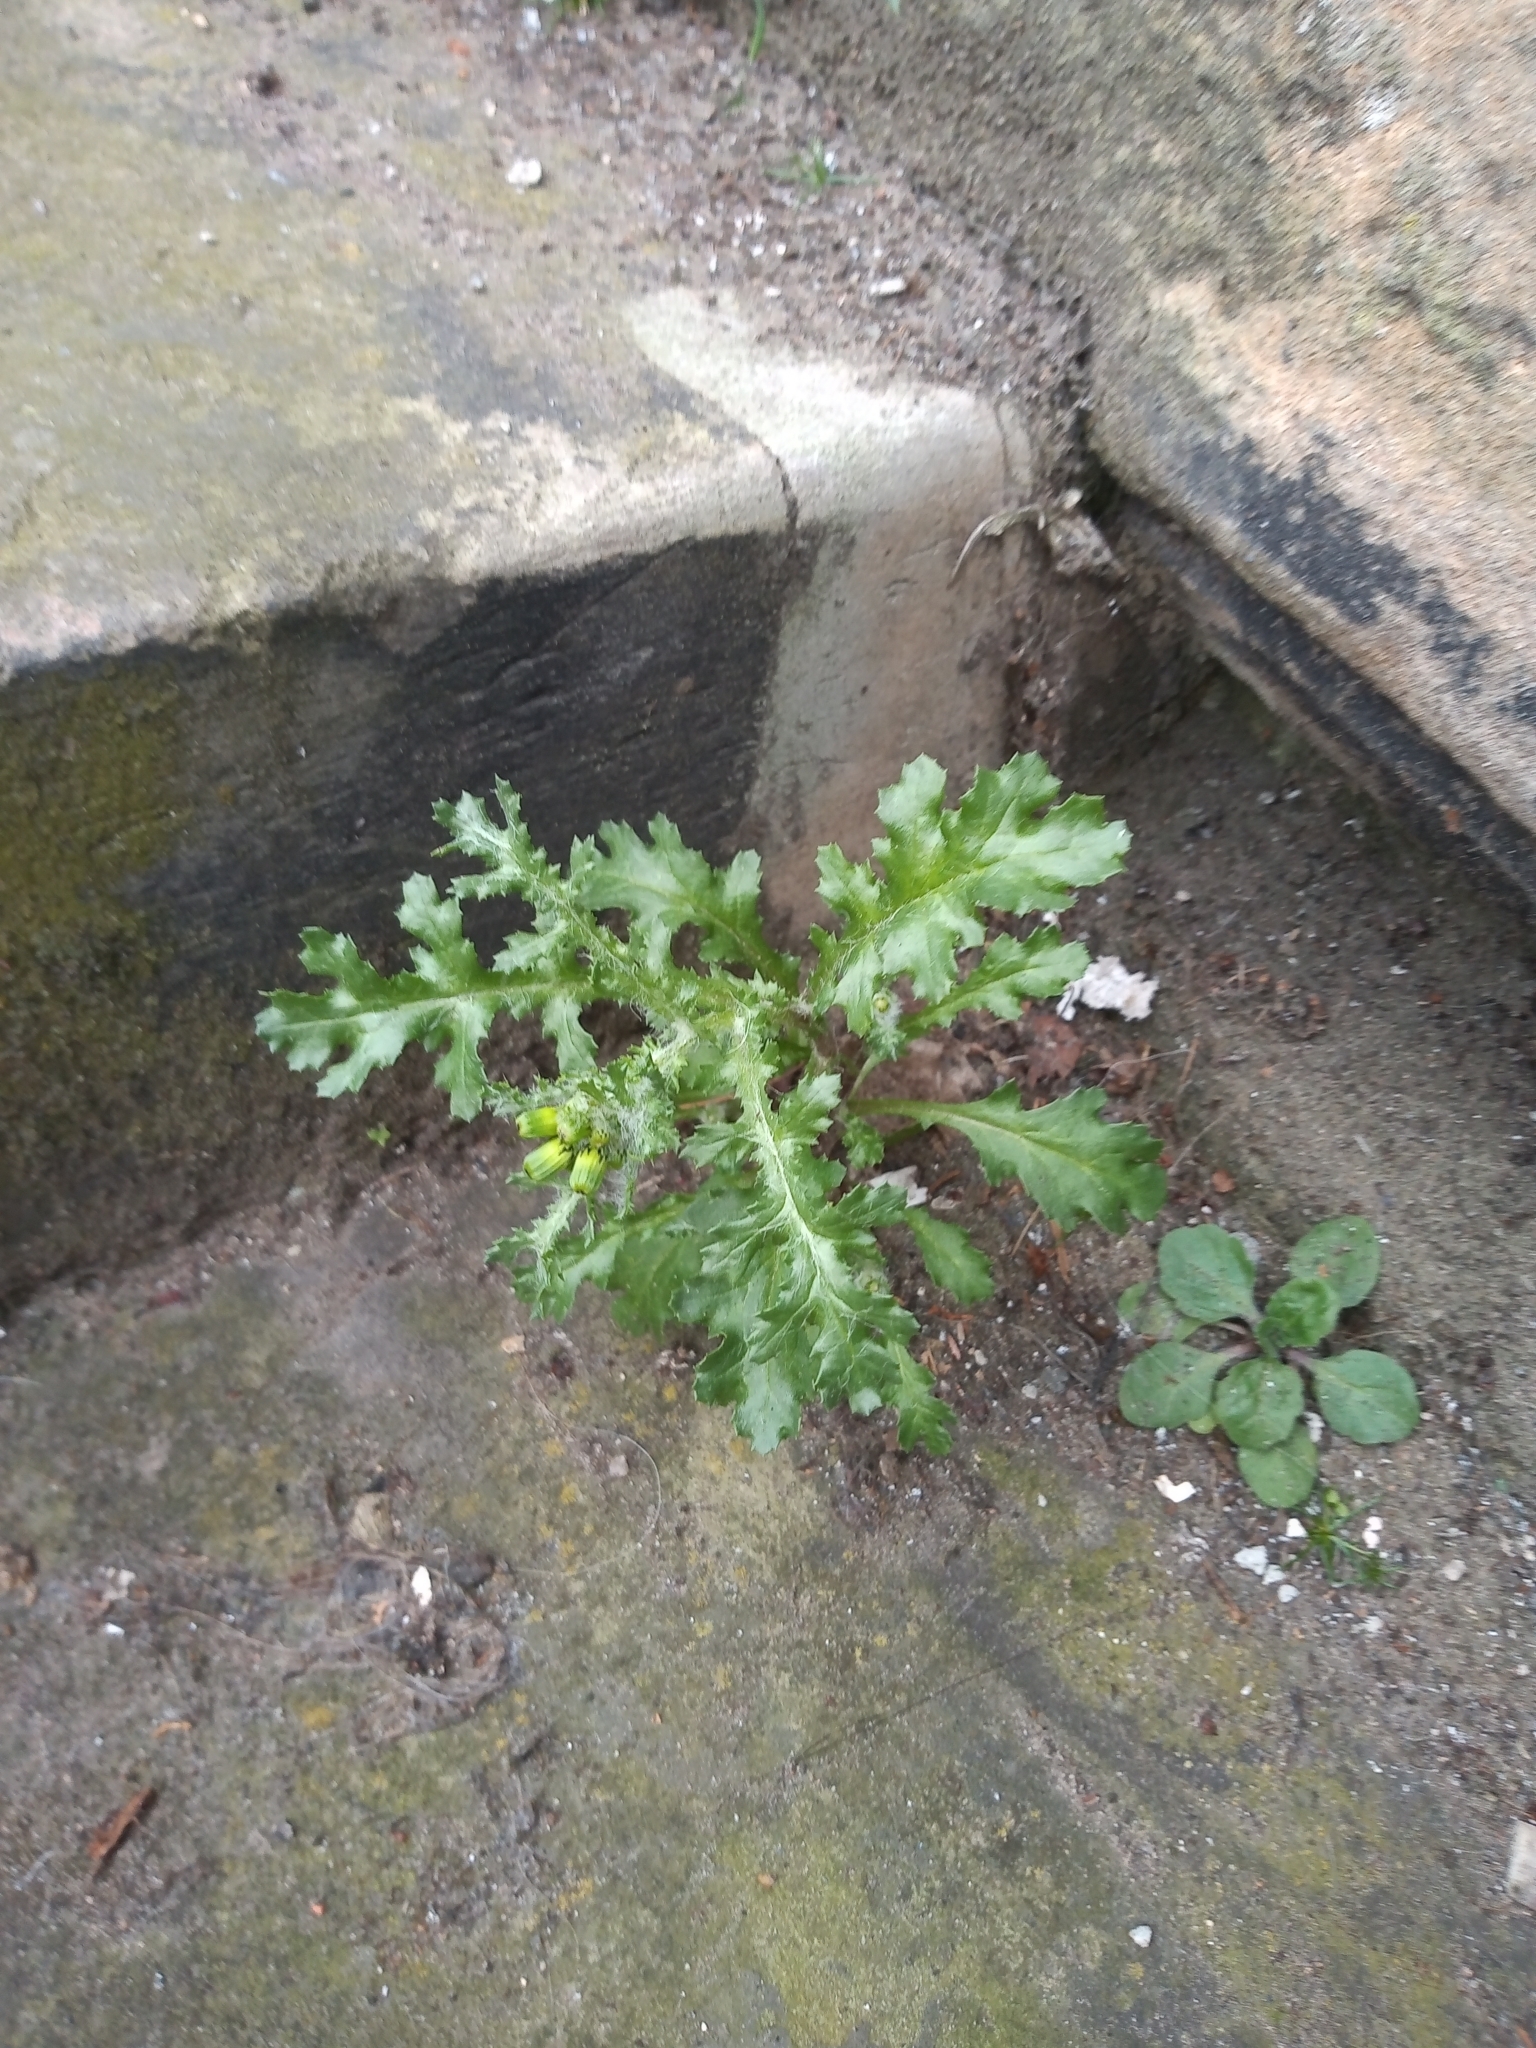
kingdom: Plantae
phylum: Tracheophyta
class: Magnoliopsida
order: Asterales
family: Asteraceae
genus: Senecio
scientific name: Senecio vulgaris
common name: Old-man-in-the-spring
